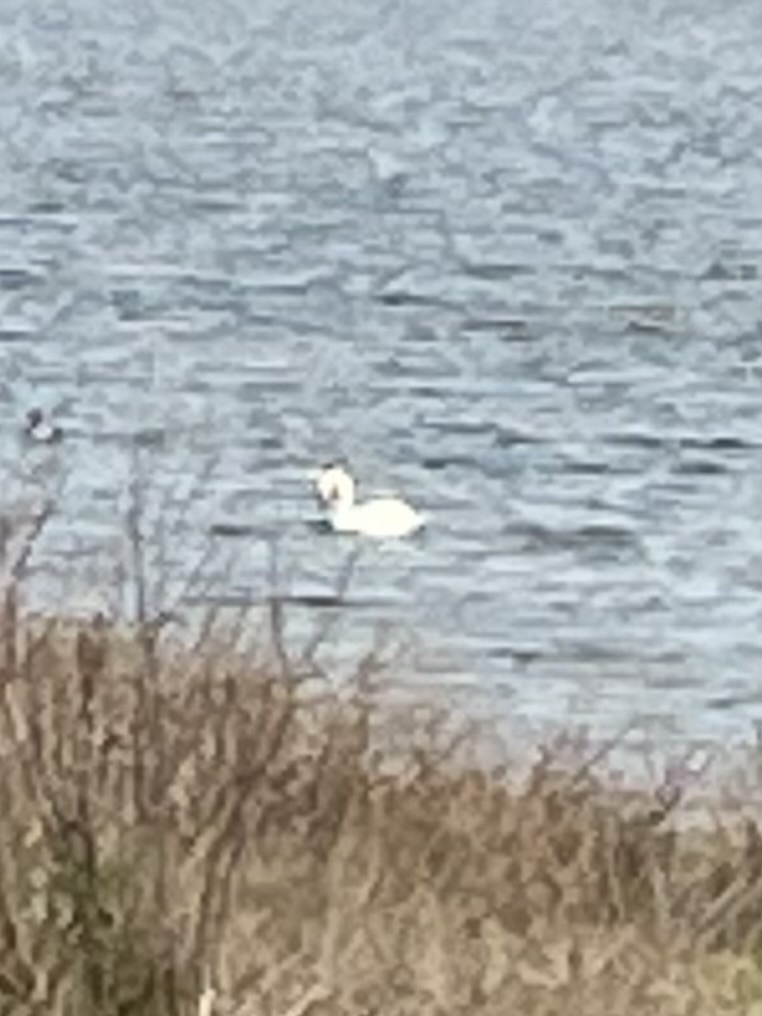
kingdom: Animalia
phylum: Chordata
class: Aves
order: Anseriformes
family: Anatidae
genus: Cygnus
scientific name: Cygnus olor
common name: Mute swan
